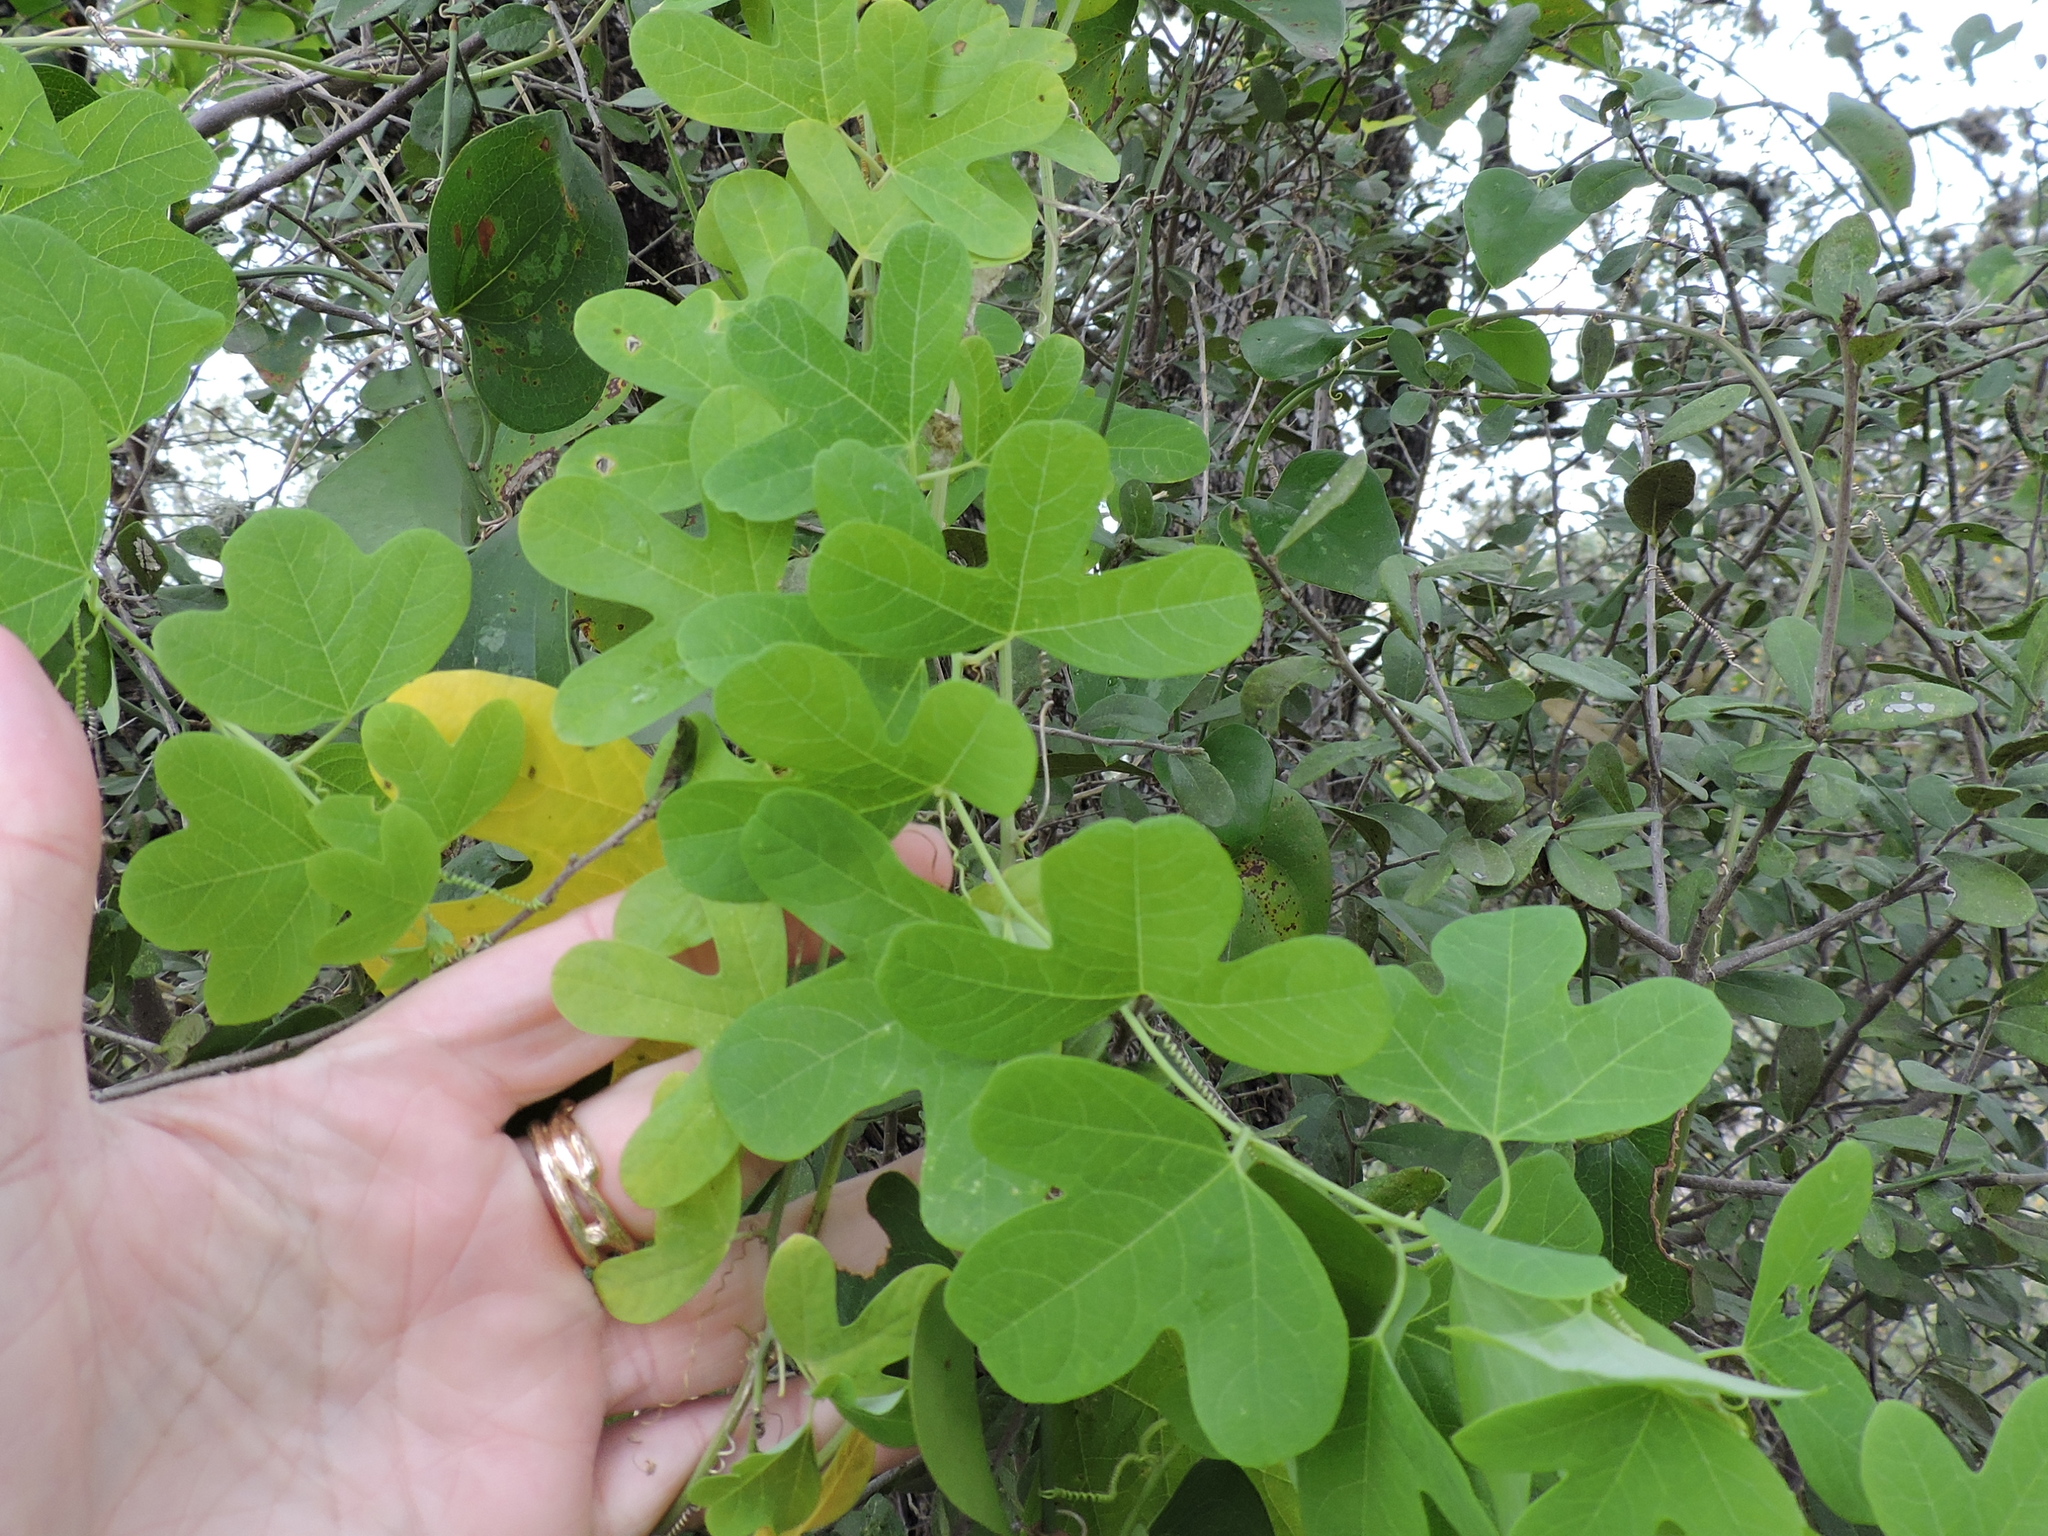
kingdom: Plantae
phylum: Tracheophyta
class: Magnoliopsida
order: Malpighiales
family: Passifloraceae
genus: Passiflora
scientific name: Passiflora affinis
